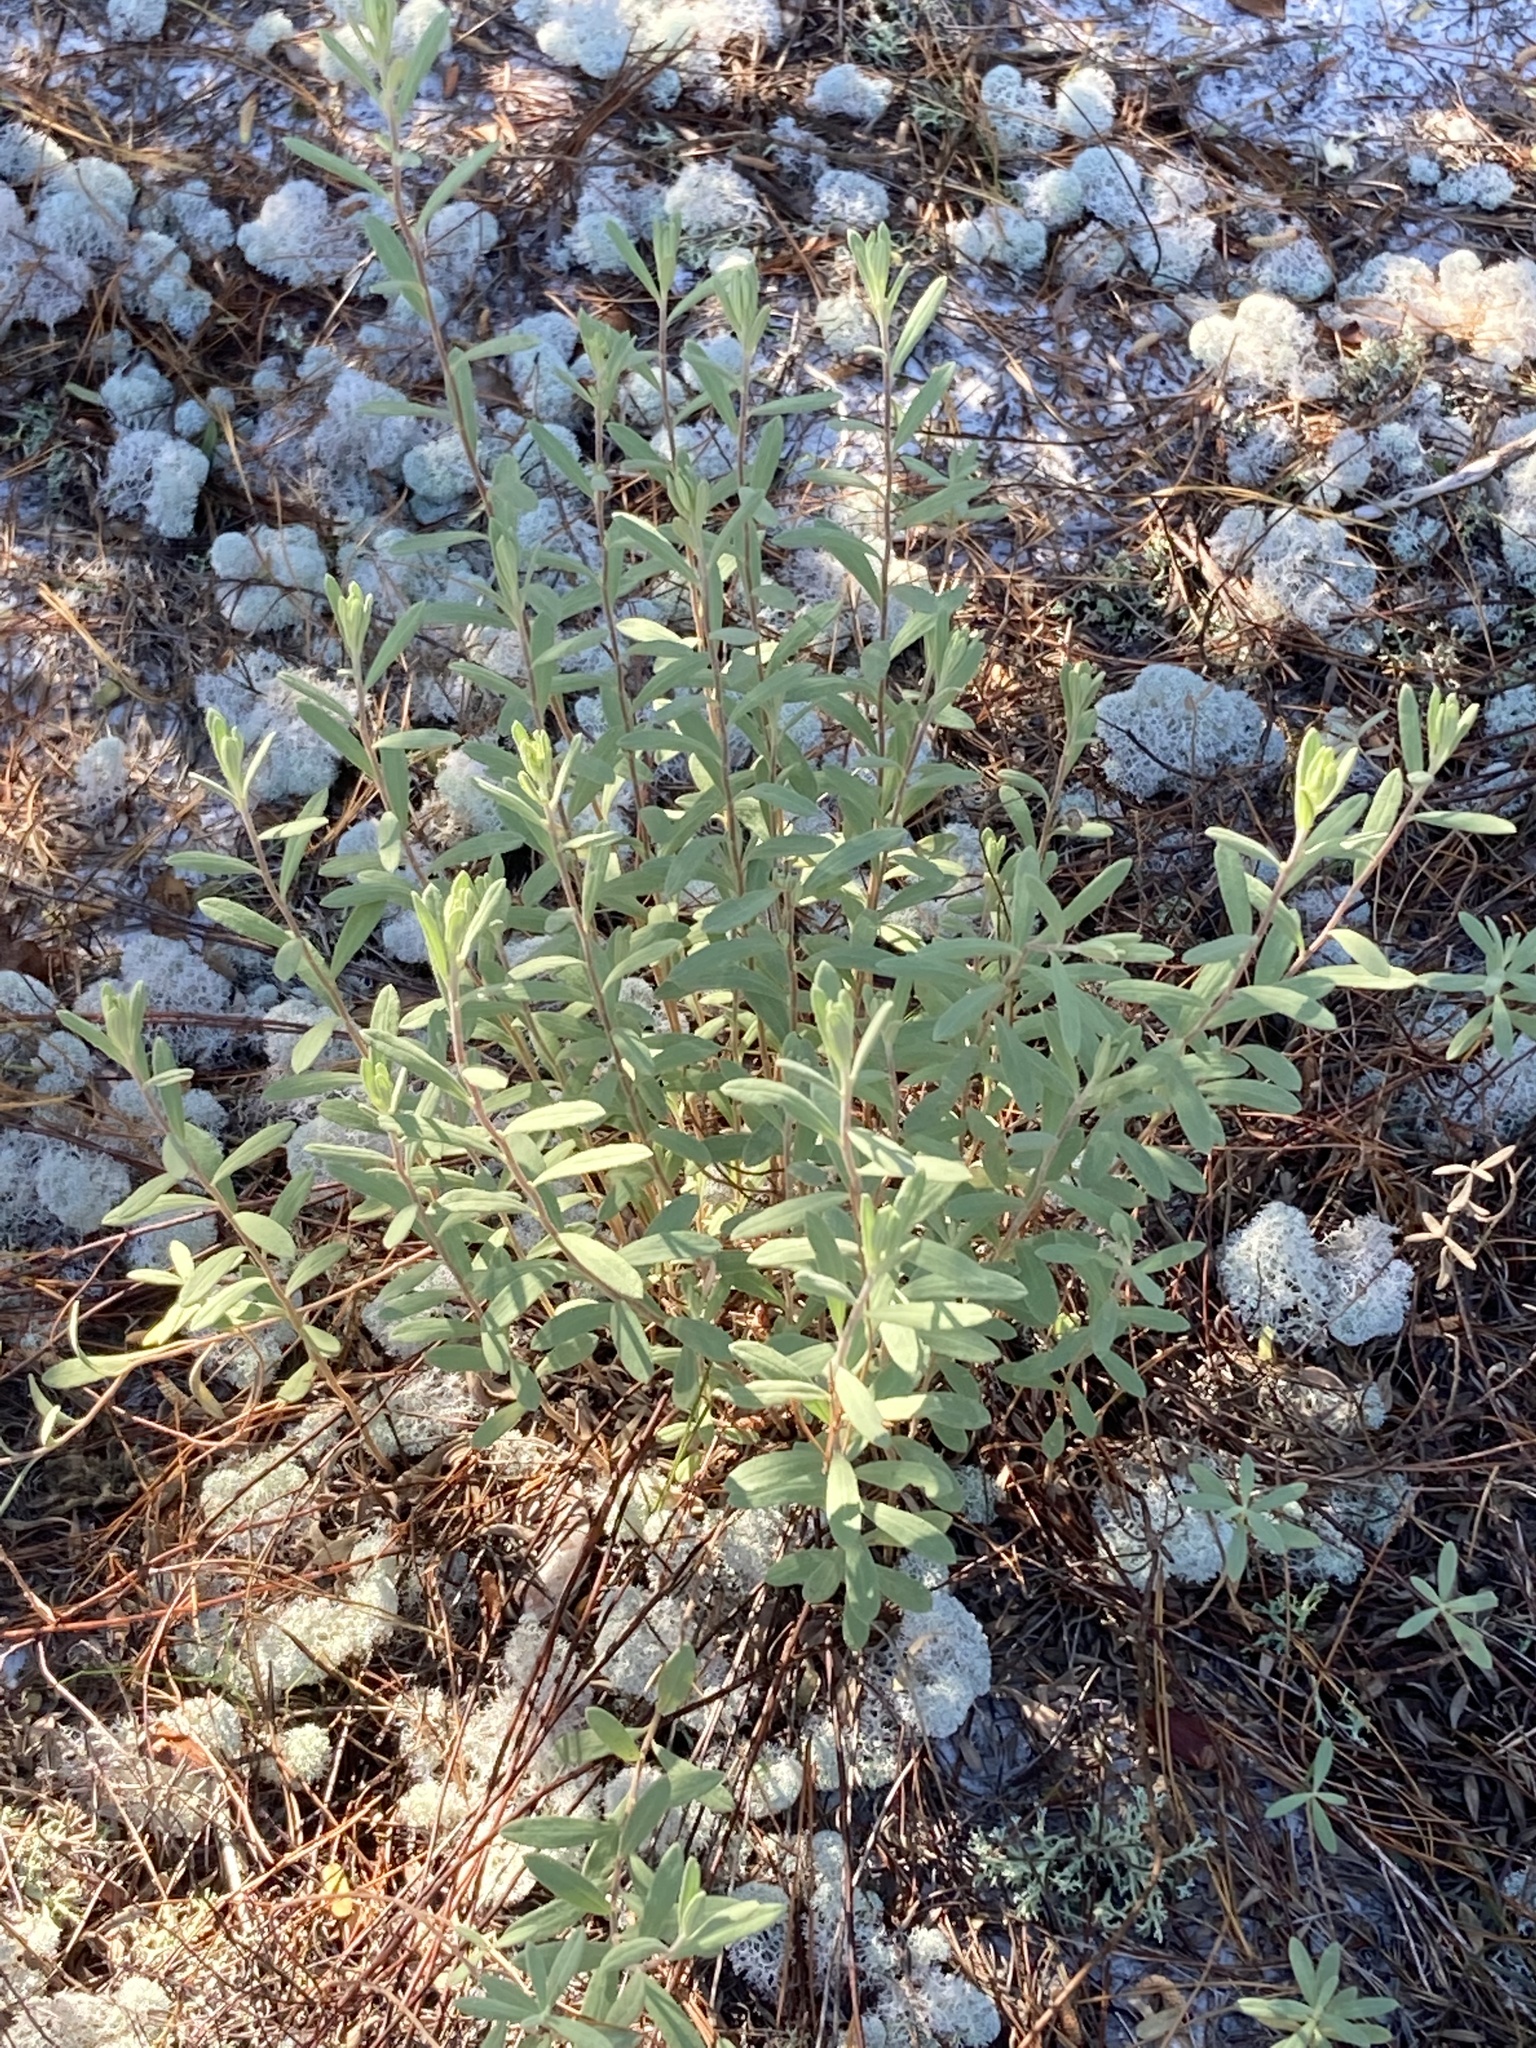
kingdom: Plantae
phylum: Tracheophyta
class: Magnoliopsida
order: Malvales
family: Cistaceae
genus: Crocanthemum
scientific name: Crocanthemum nashii
